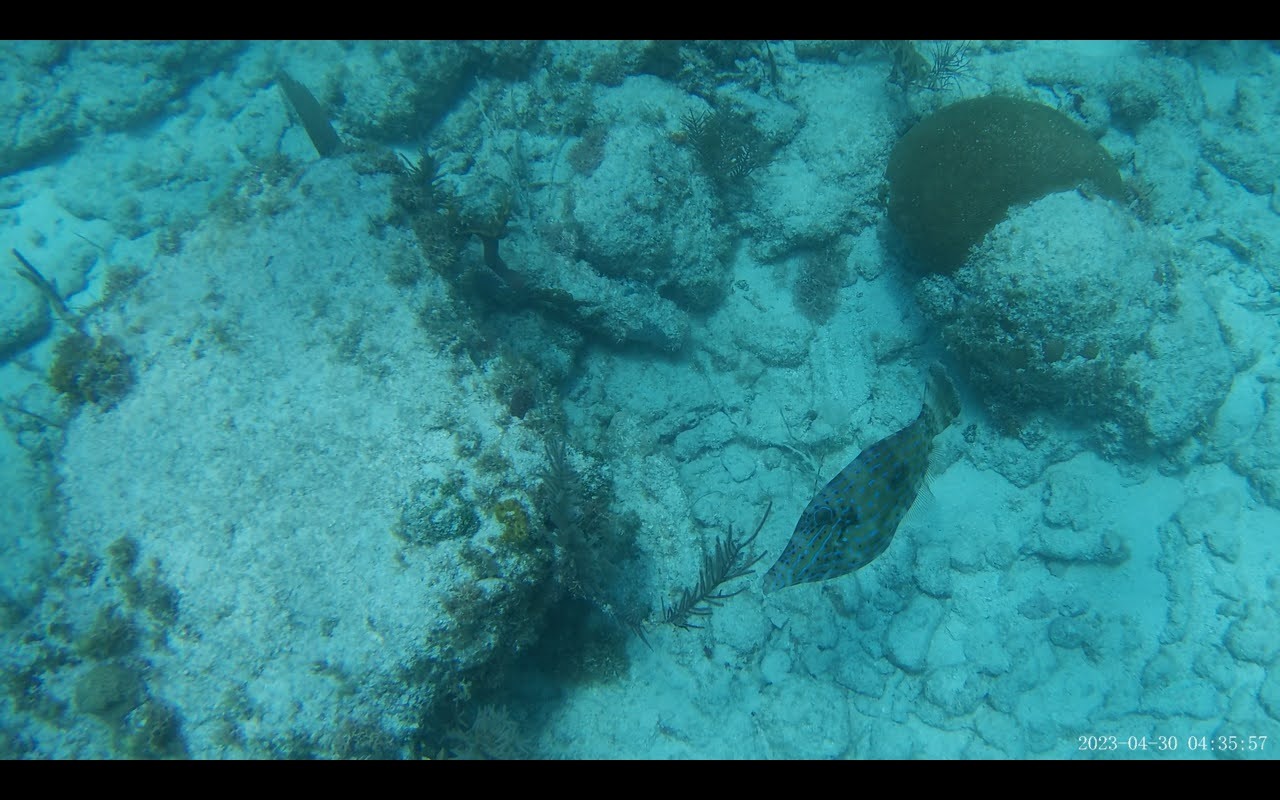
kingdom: Animalia
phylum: Chordata
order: Tetraodontiformes
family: Monacanthidae
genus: Aluterus
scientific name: Aluterus scriptus
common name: Scribbled leatherjacket filefish
